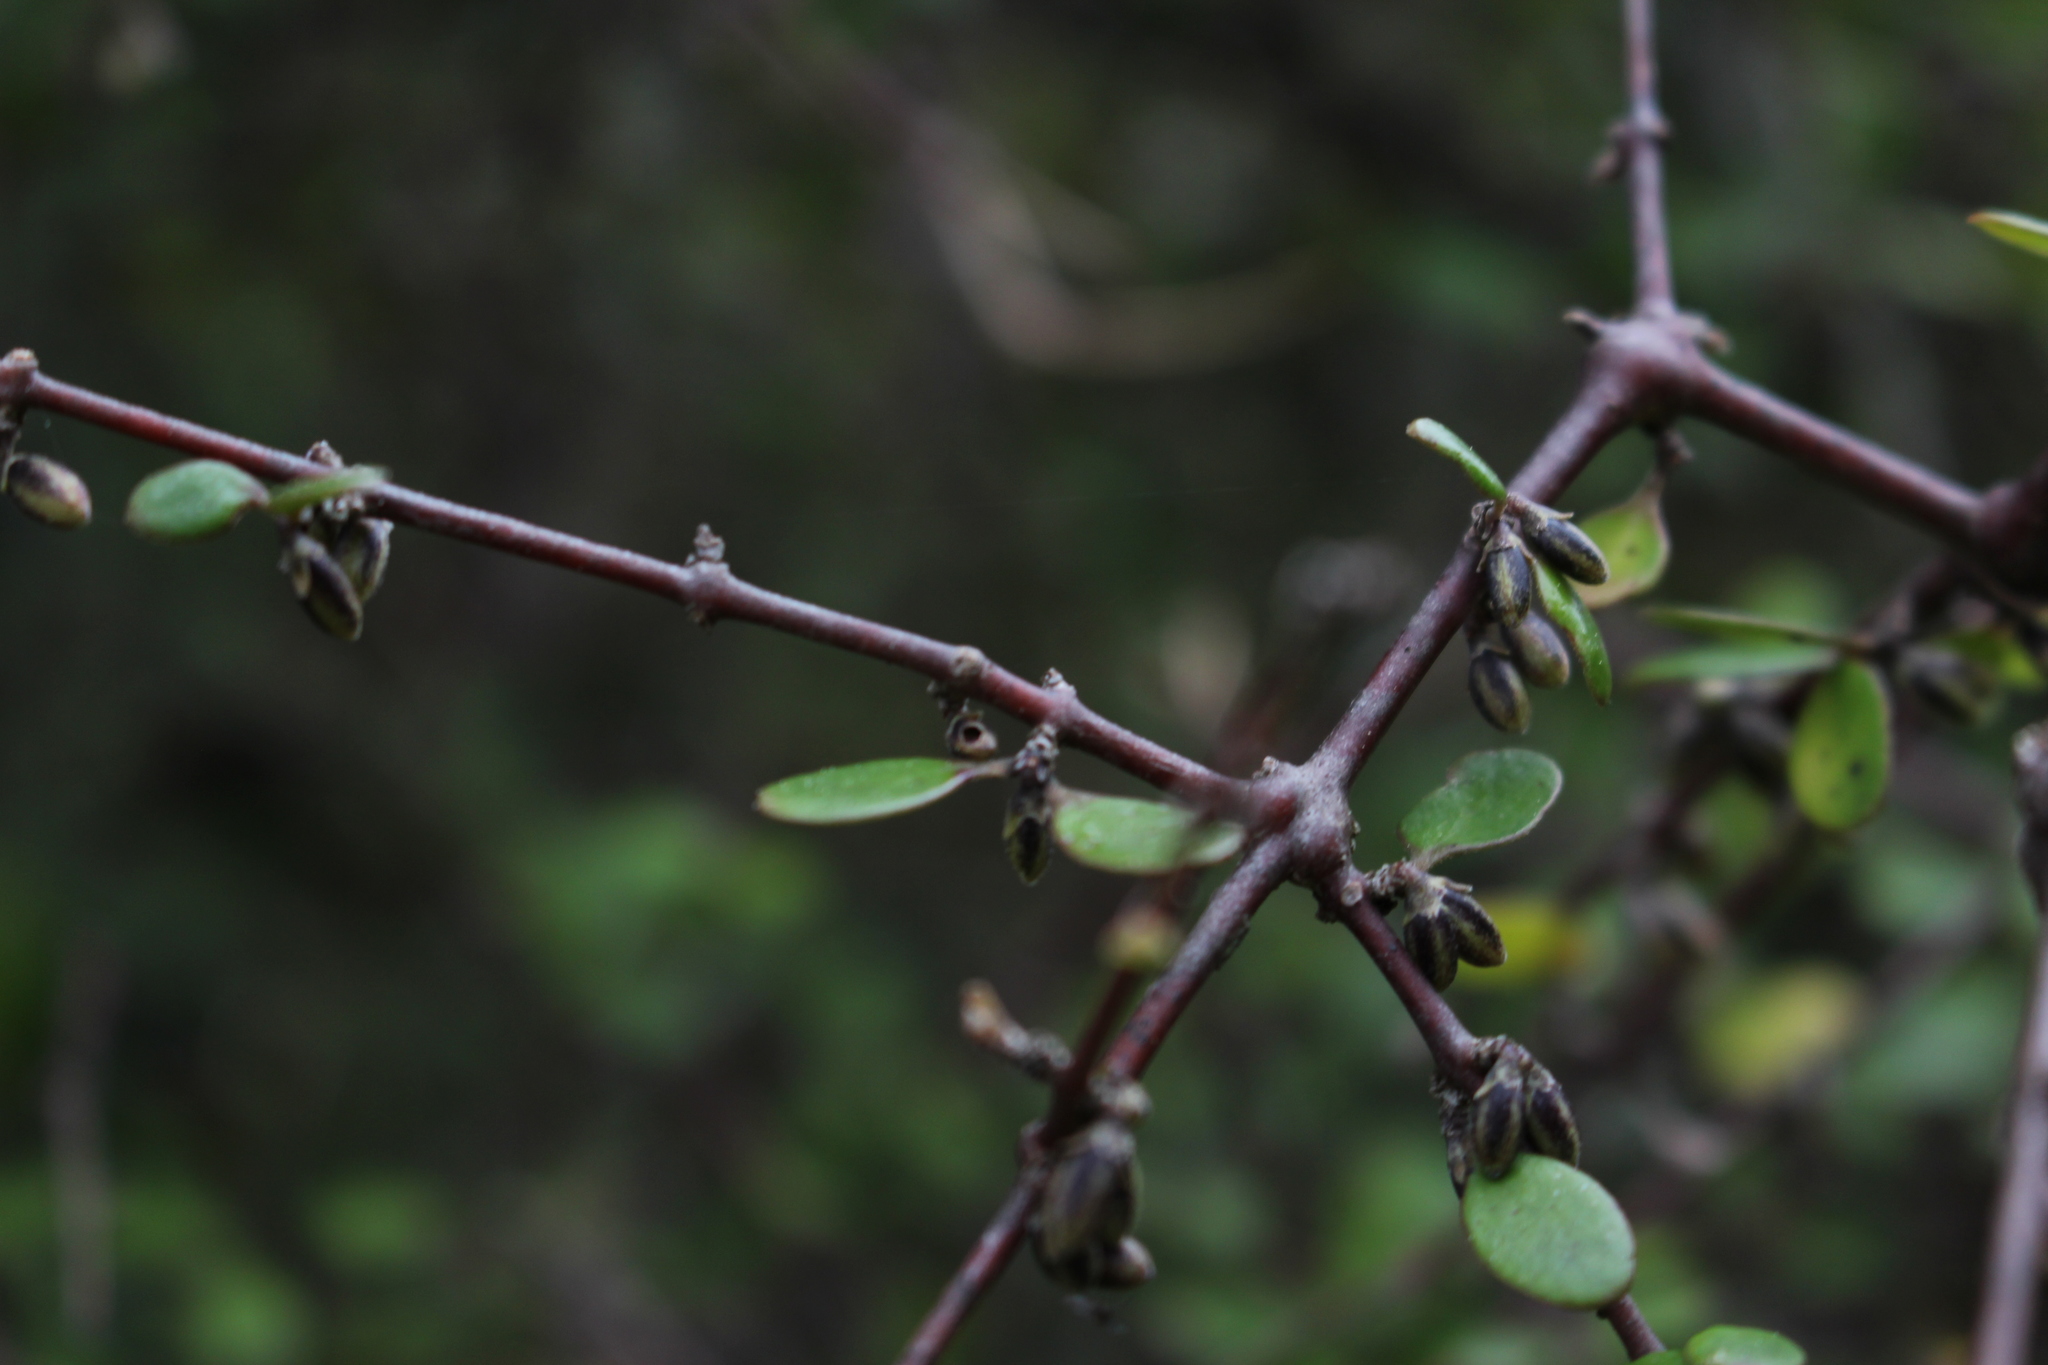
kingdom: Plantae
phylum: Tracheophyta
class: Magnoliopsida
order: Santalales
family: Loranthaceae
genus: Ileostylus
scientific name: Ileostylus micranthus
